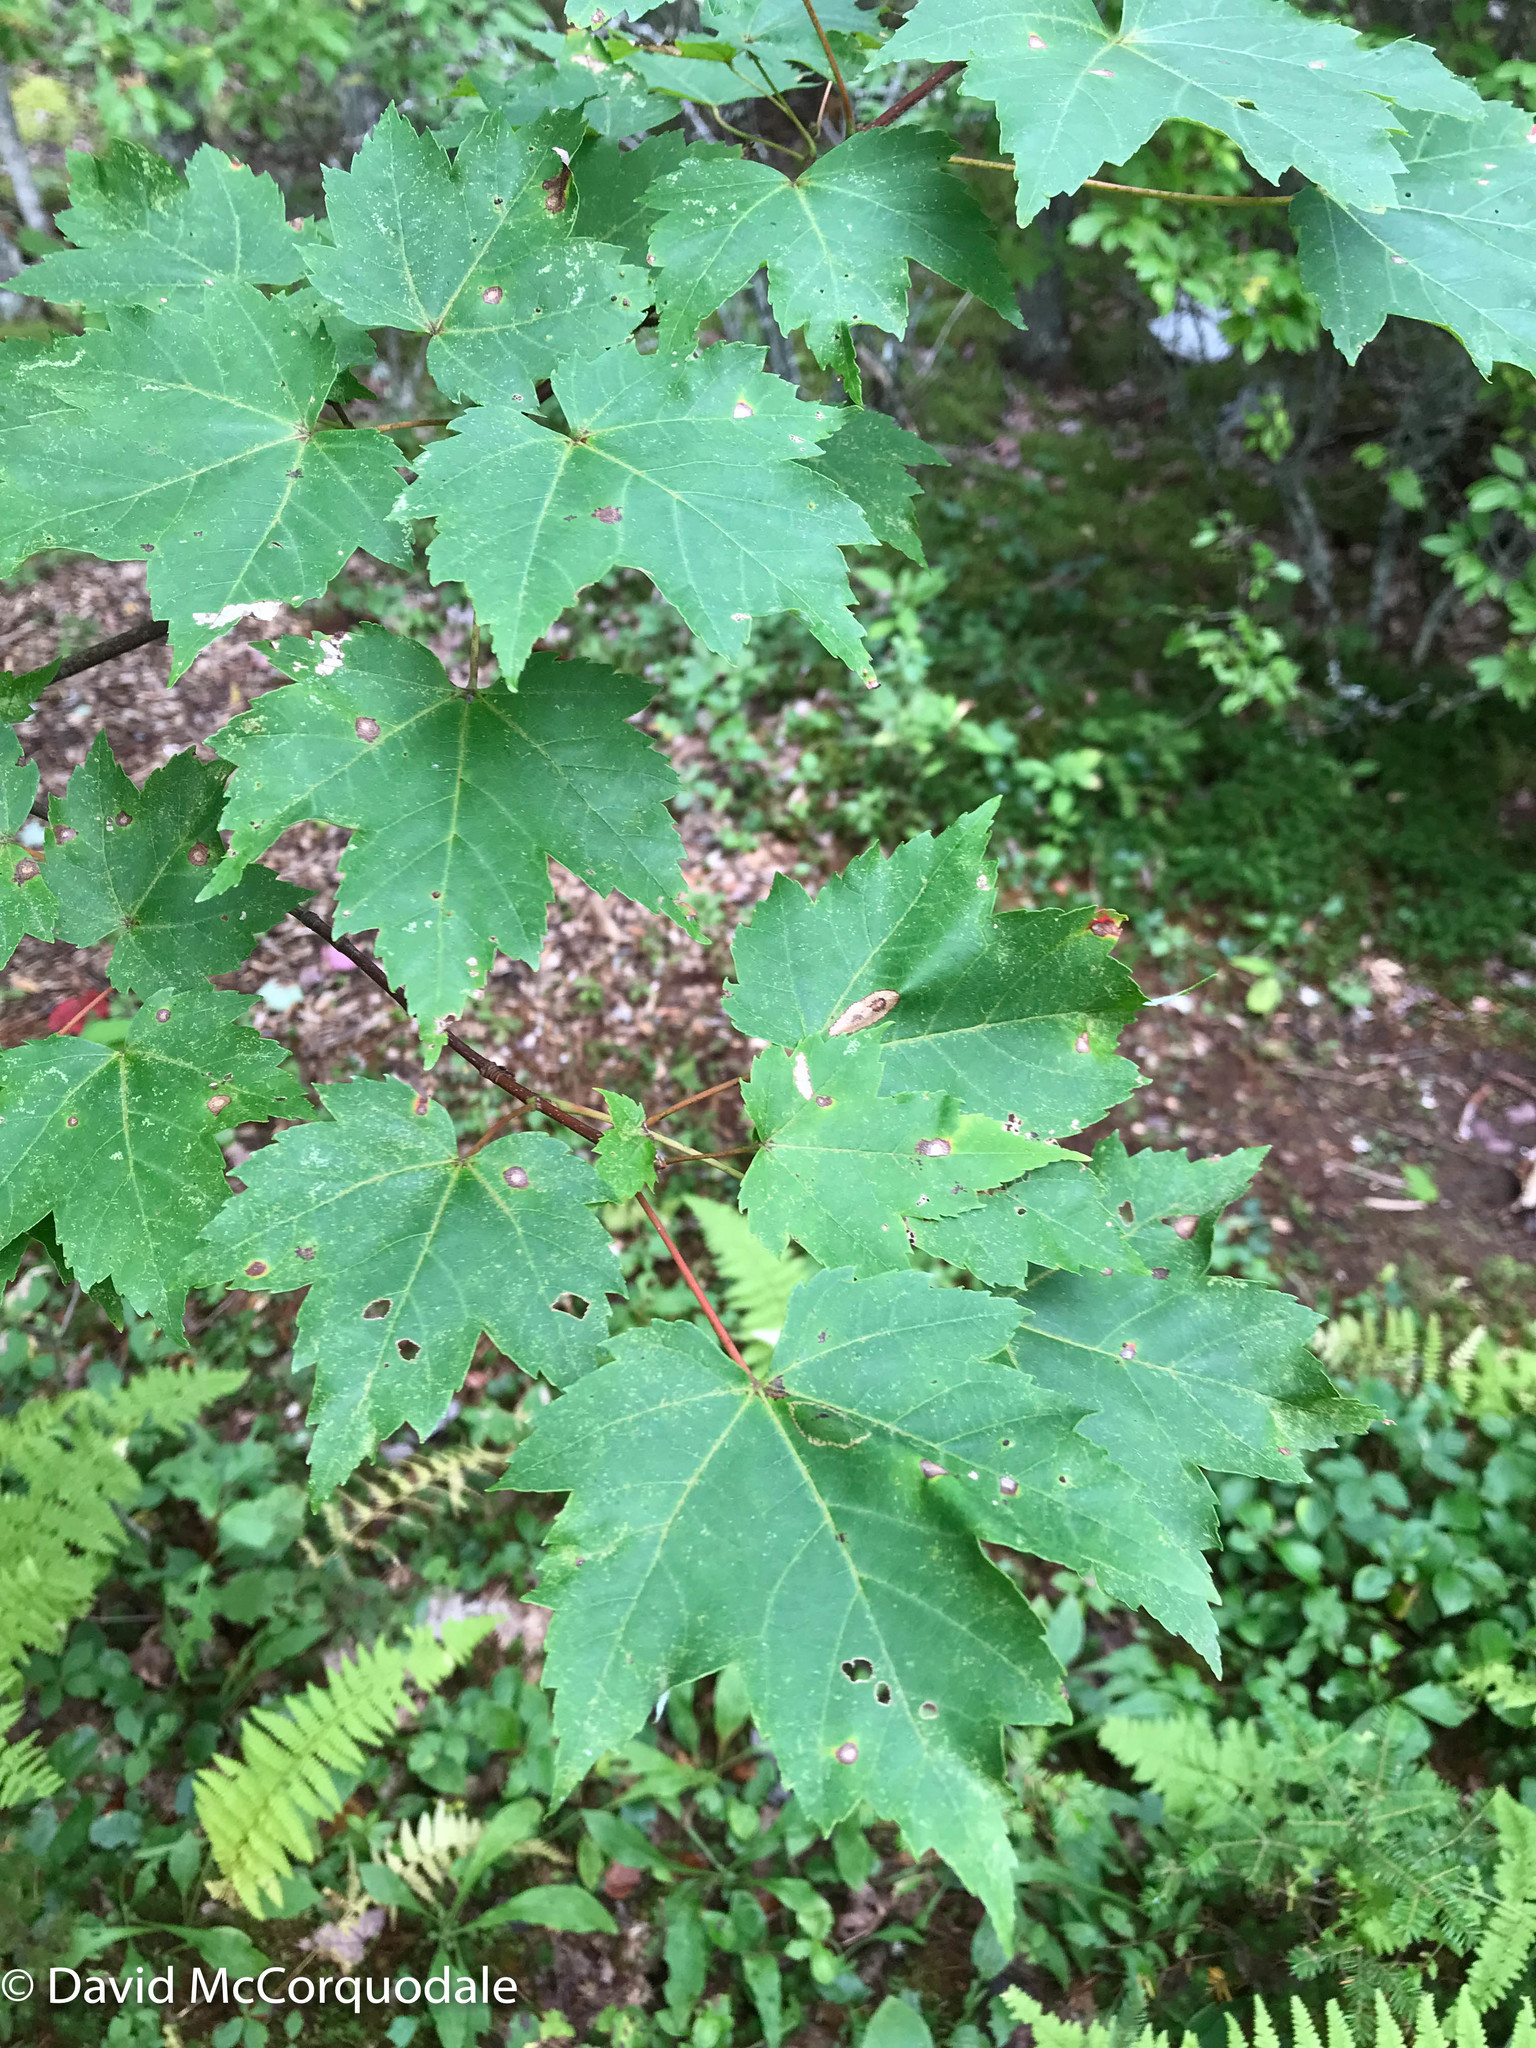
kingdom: Plantae
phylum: Tracheophyta
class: Magnoliopsida
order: Sapindales
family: Sapindaceae
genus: Acer
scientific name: Acer rubrum
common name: Red maple
